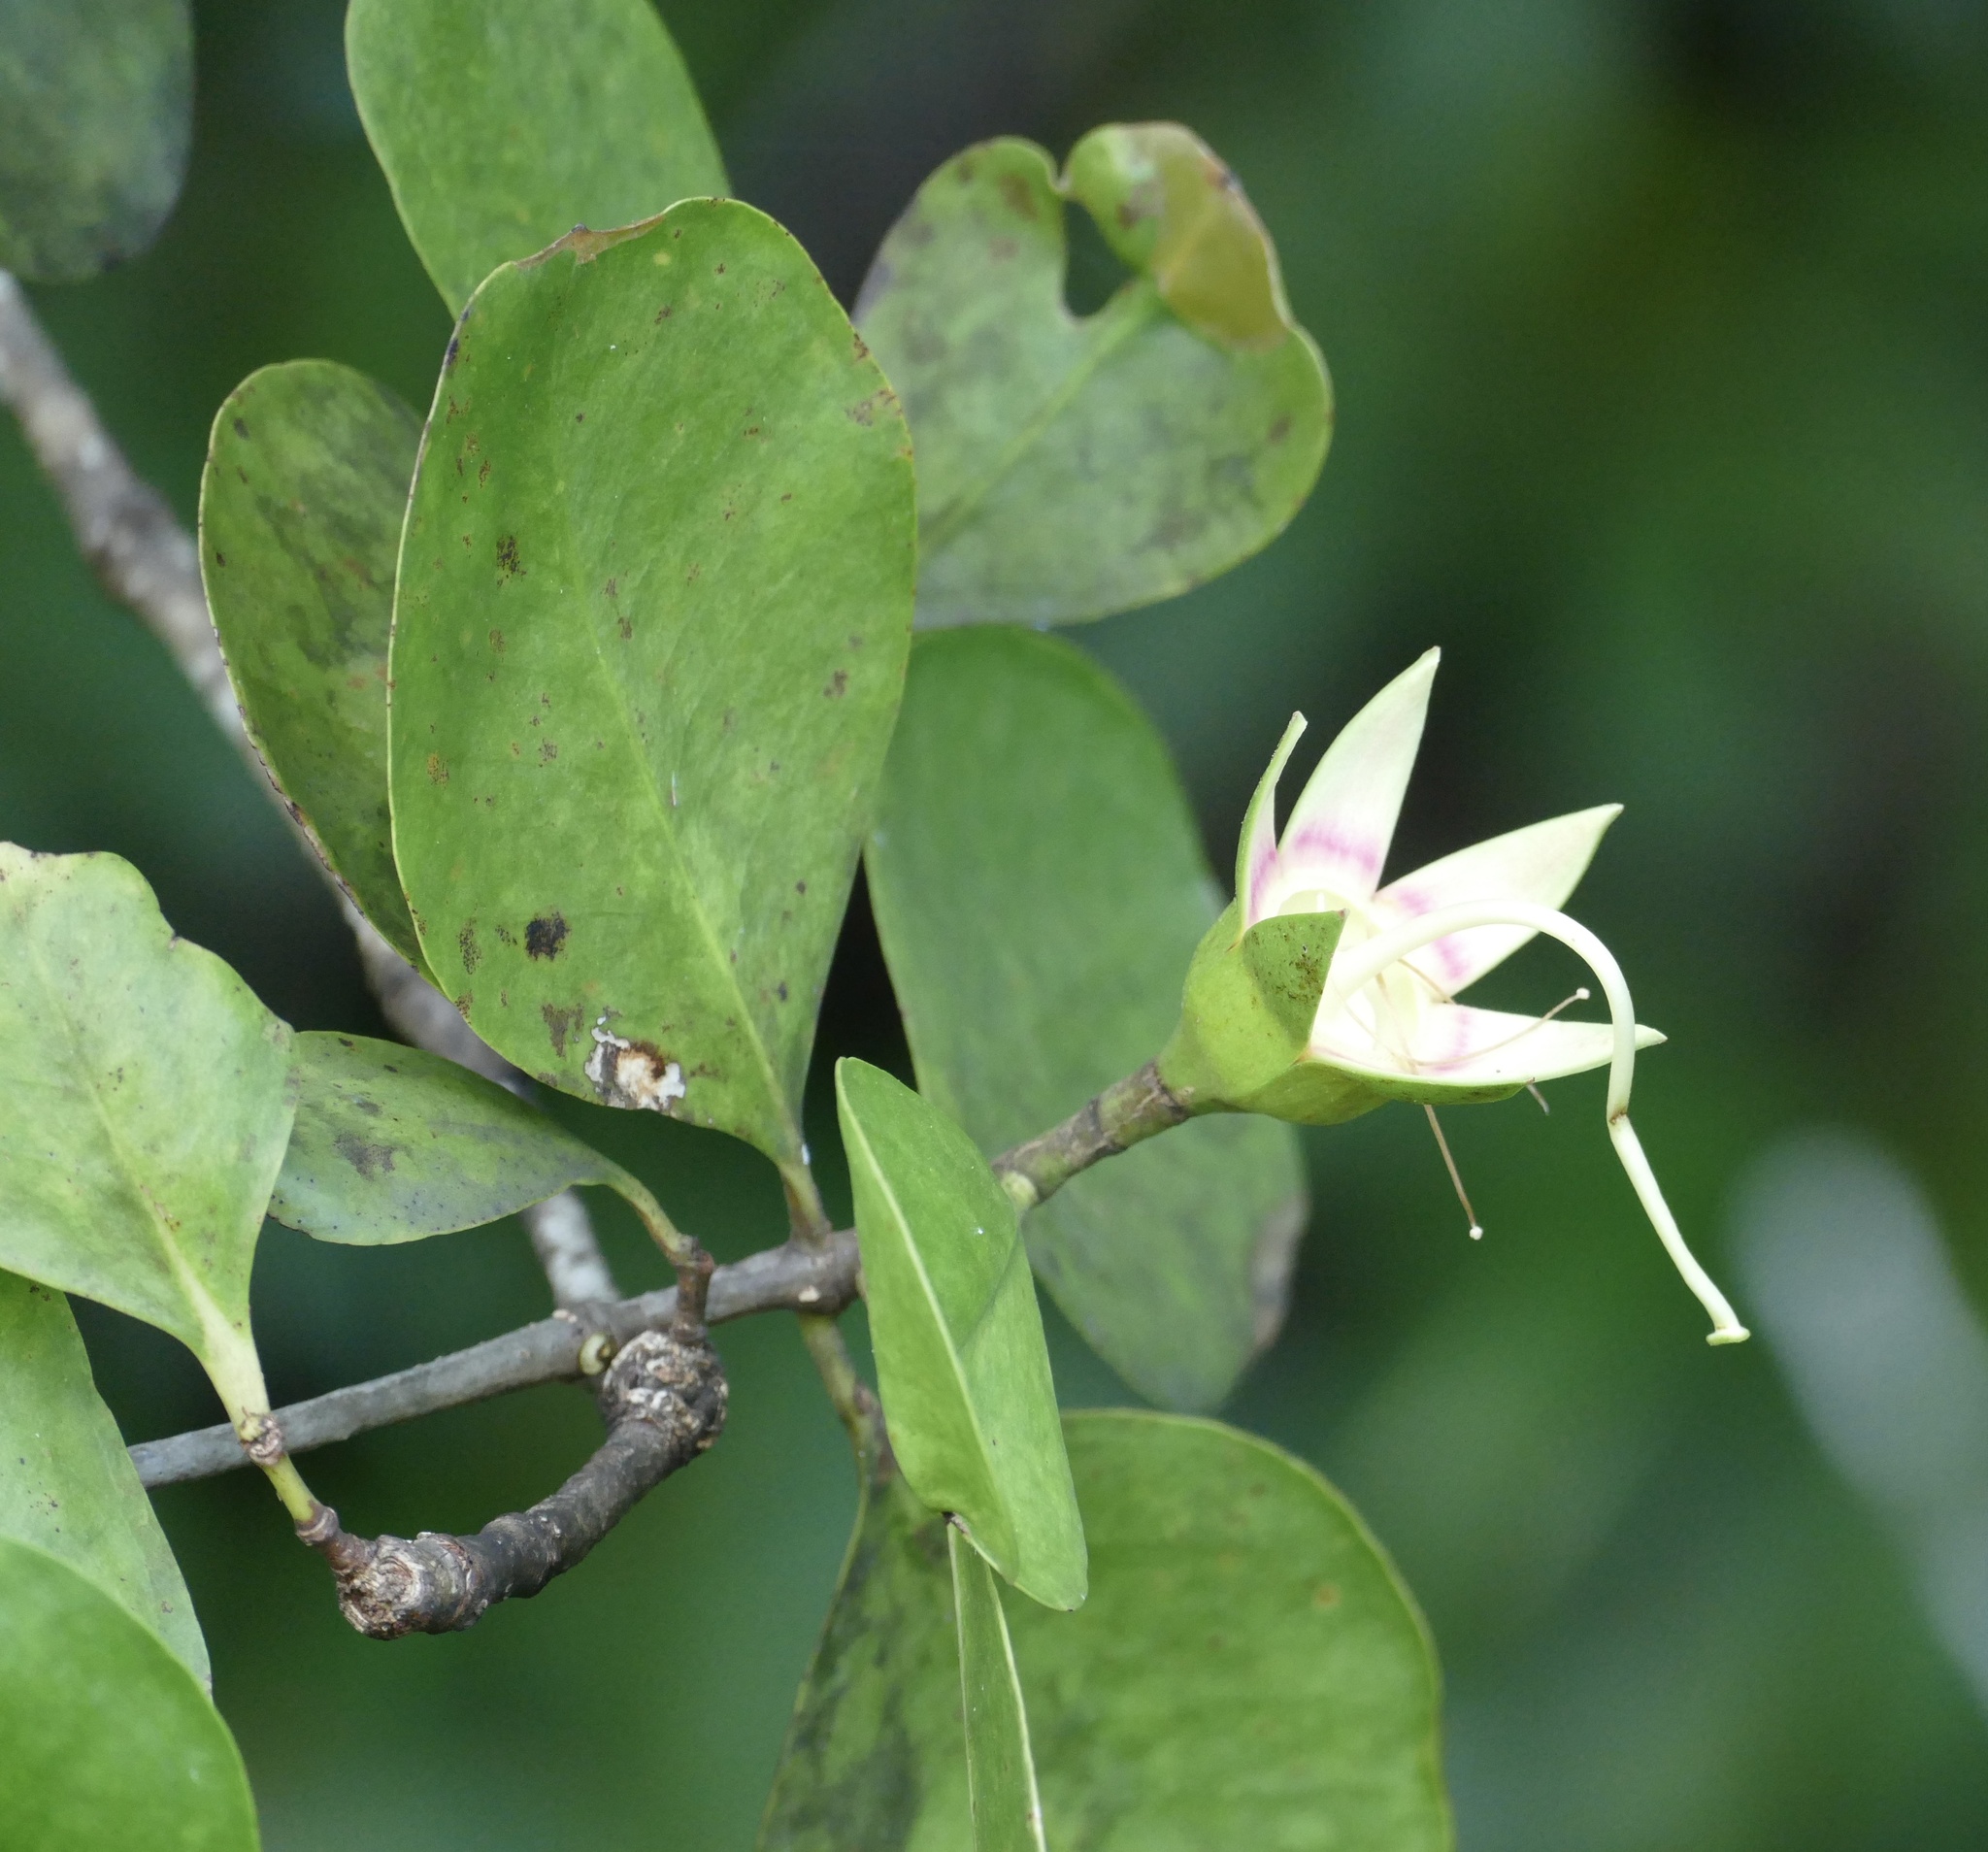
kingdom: Plantae
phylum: Tracheophyta
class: Magnoliopsida
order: Myrtales
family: Lythraceae
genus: Sonneratia
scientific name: Sonneratia alba
